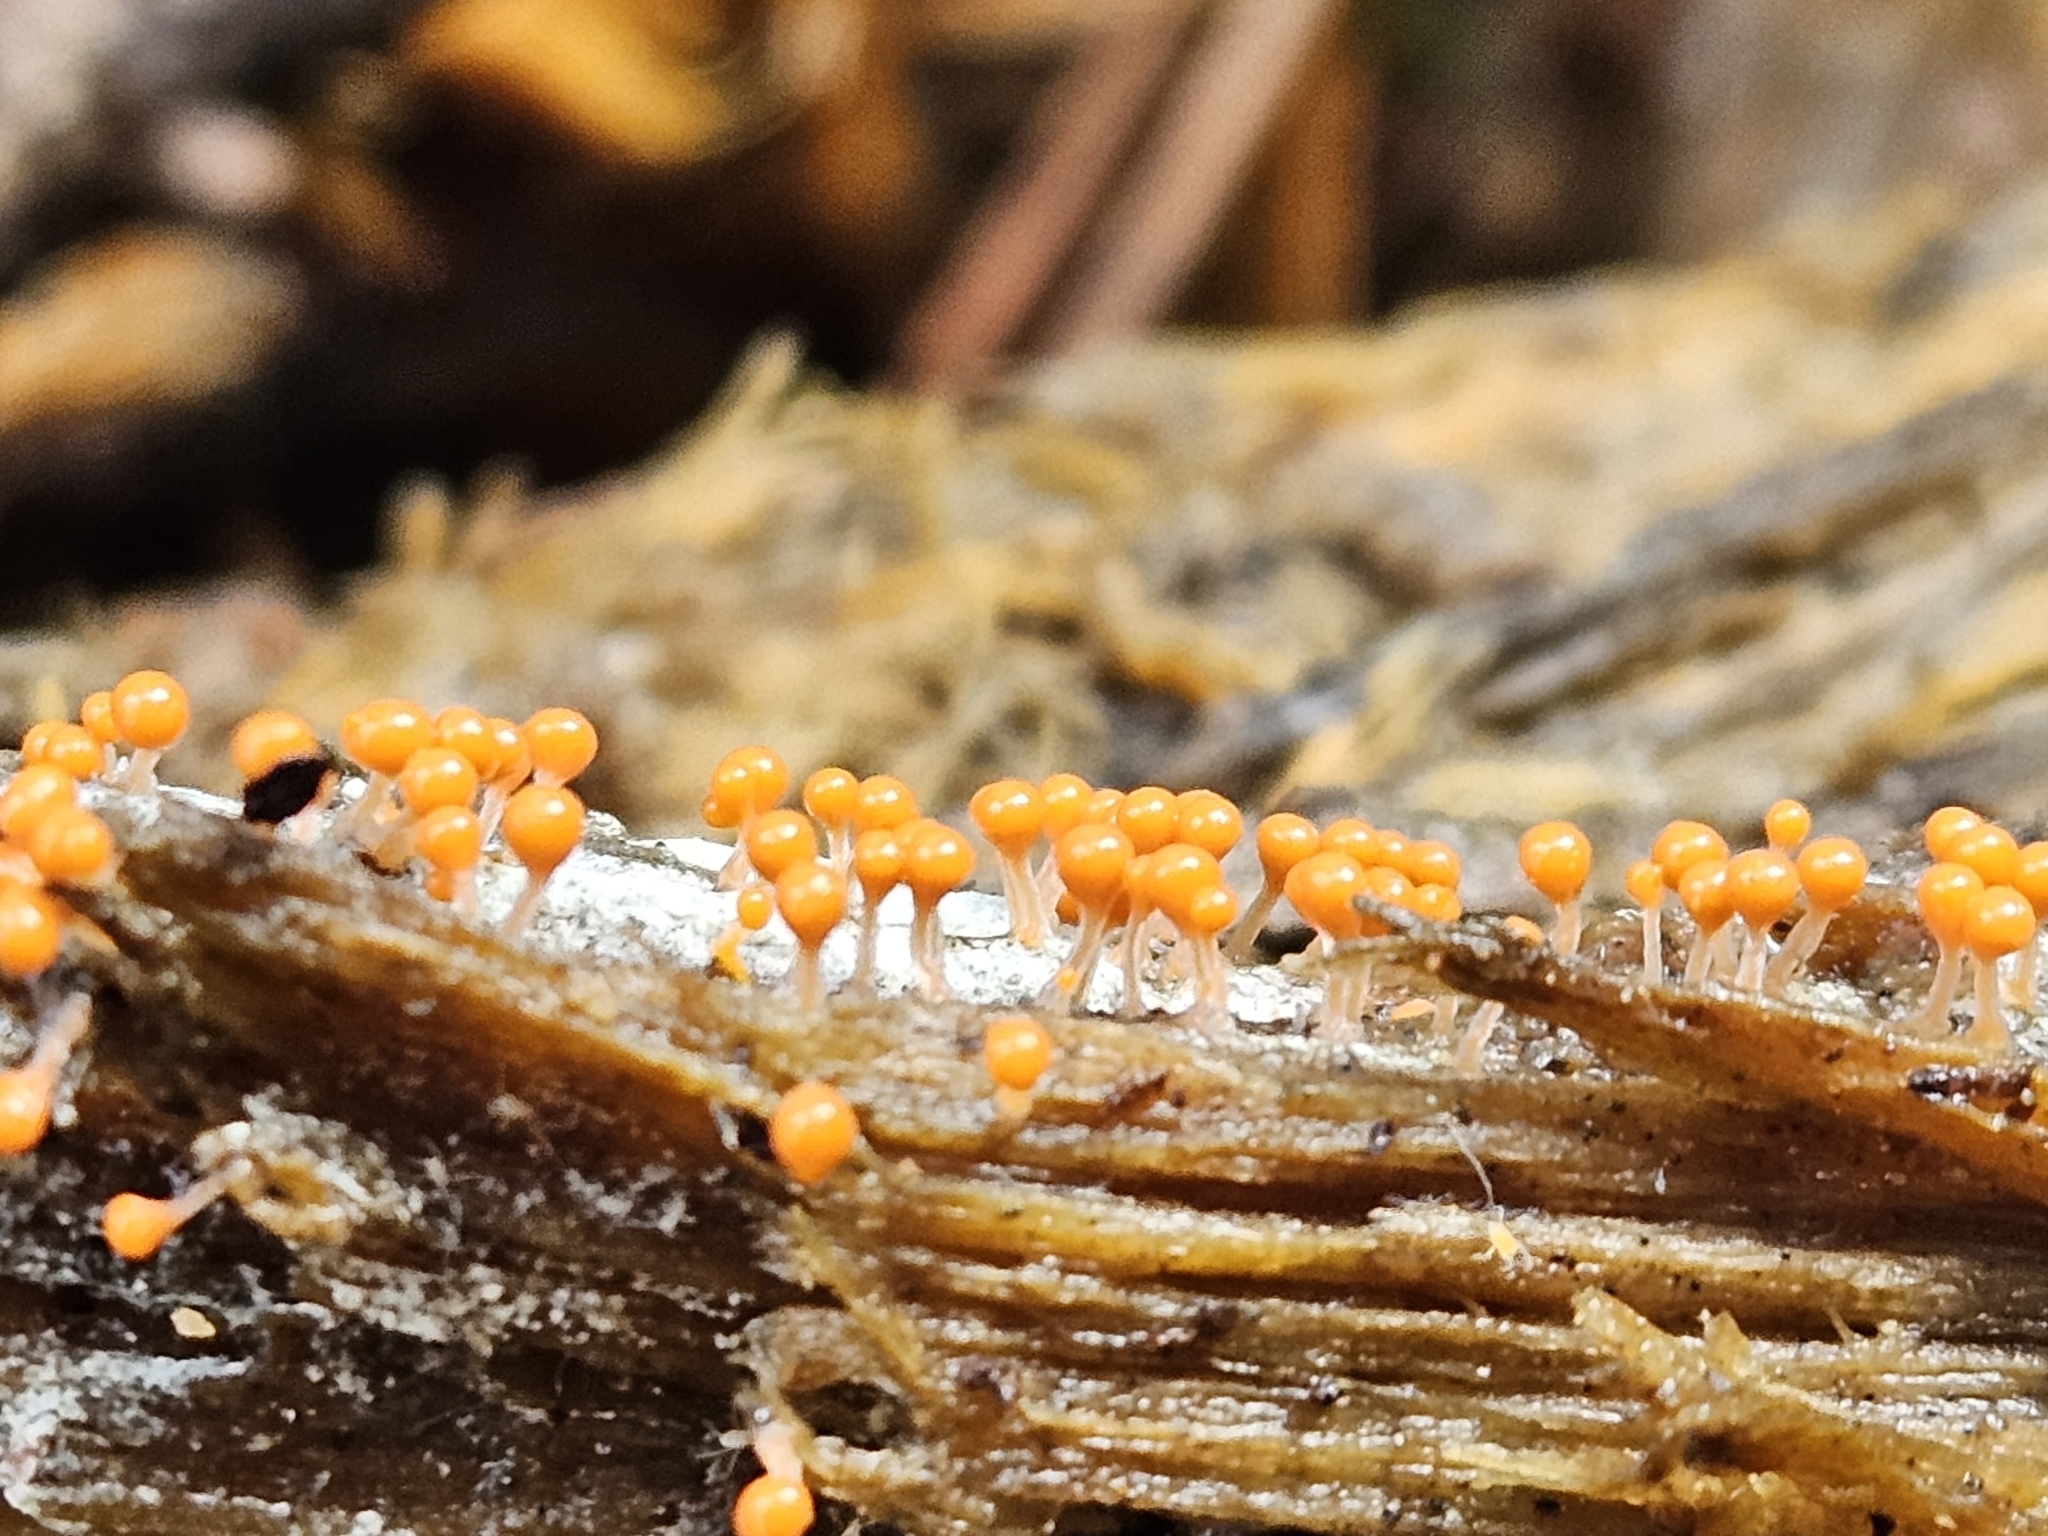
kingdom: Protozoa
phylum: Mycetozoa
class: Myxomycetes
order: Trichiales
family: Arcyriaceae
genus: Hemitrichia
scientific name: Hemitrichia decipiens
